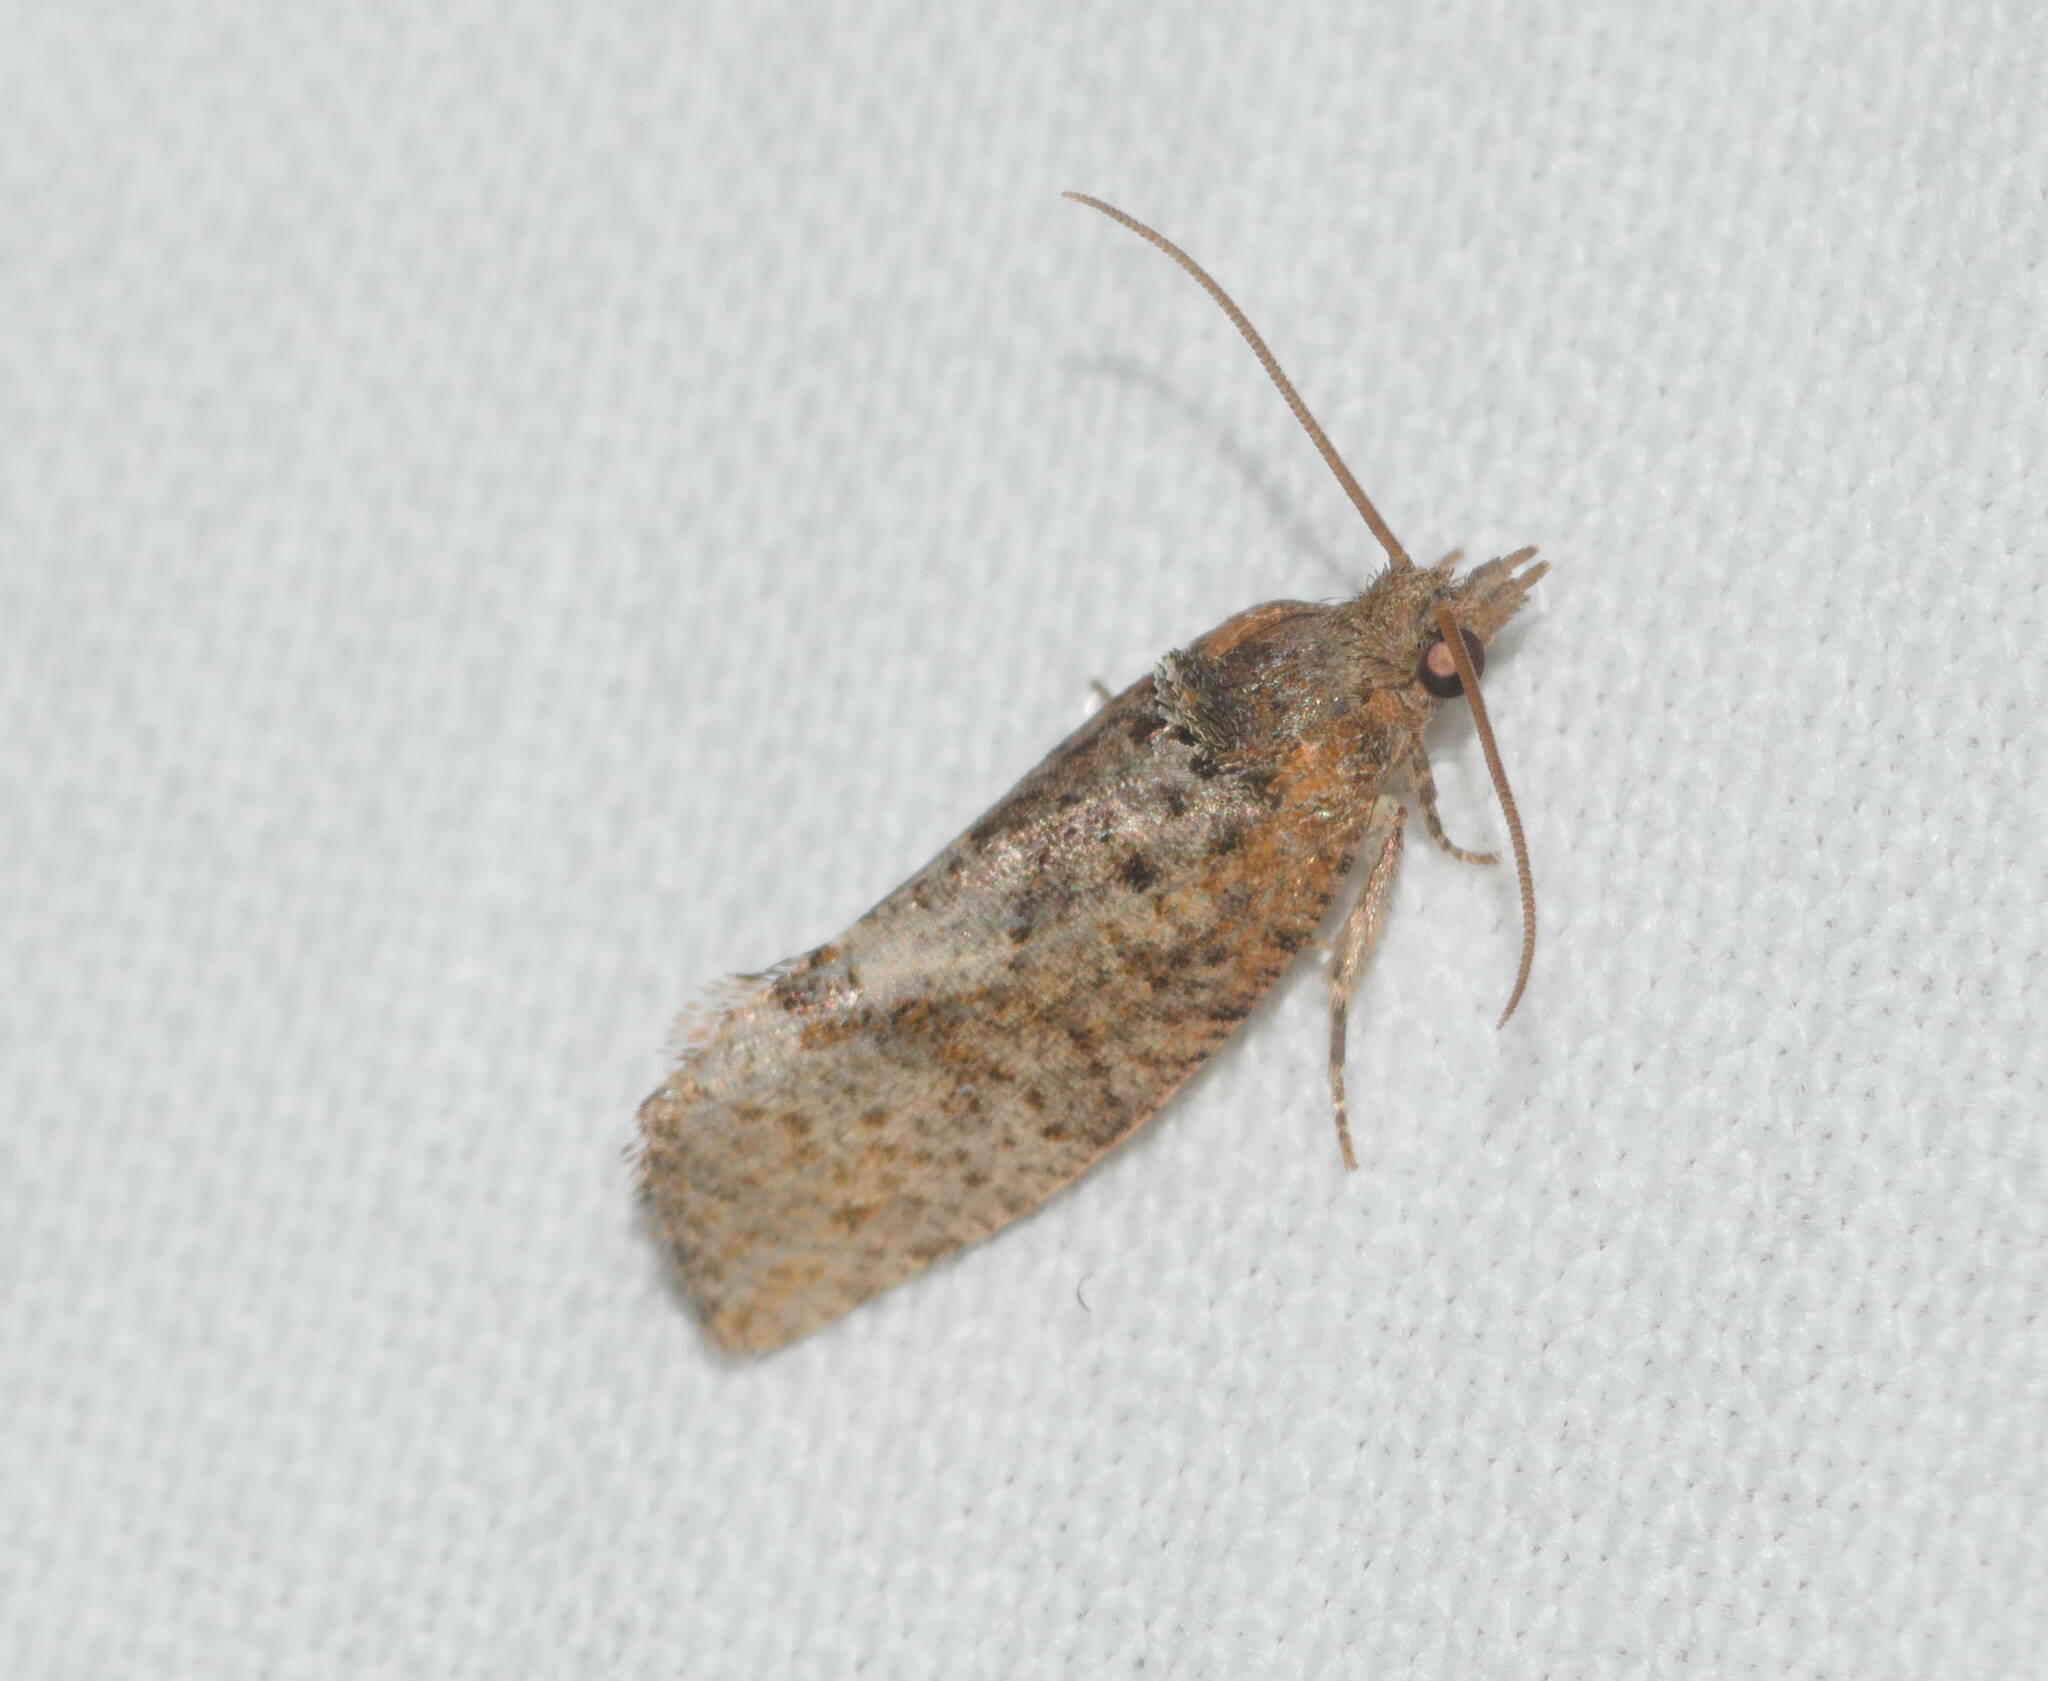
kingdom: Animalia
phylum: Arthropoda
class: Insecta
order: Lepidoptera
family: Tortricidae
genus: Cryptophlebia
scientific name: Cryptophlebia illepida
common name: Moth
